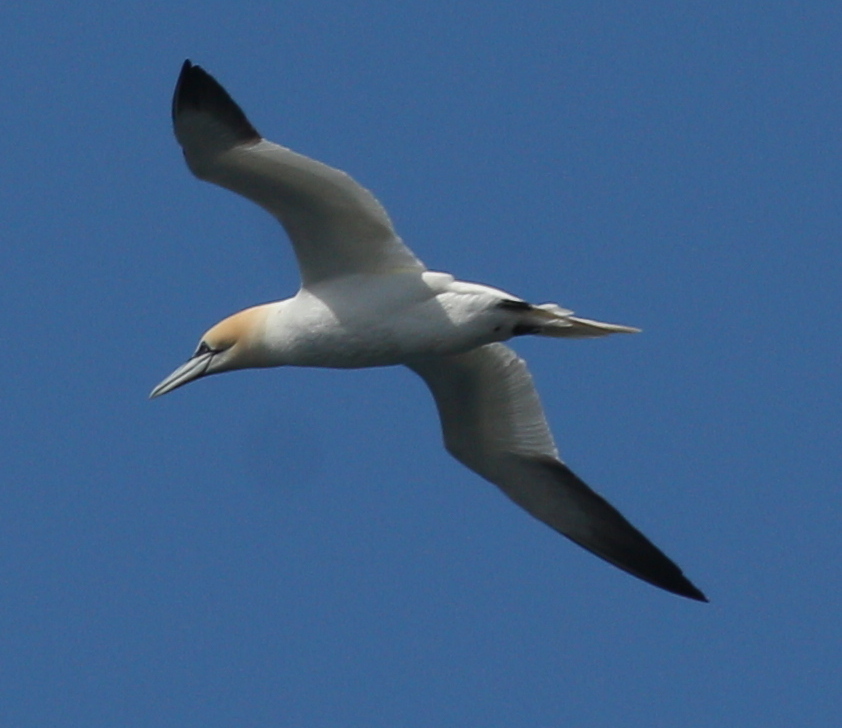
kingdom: Animalia
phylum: Chordata
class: Aves
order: Suliformes
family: Sulidae
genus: Morus
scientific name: Morus bassanus
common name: Northern gannet
